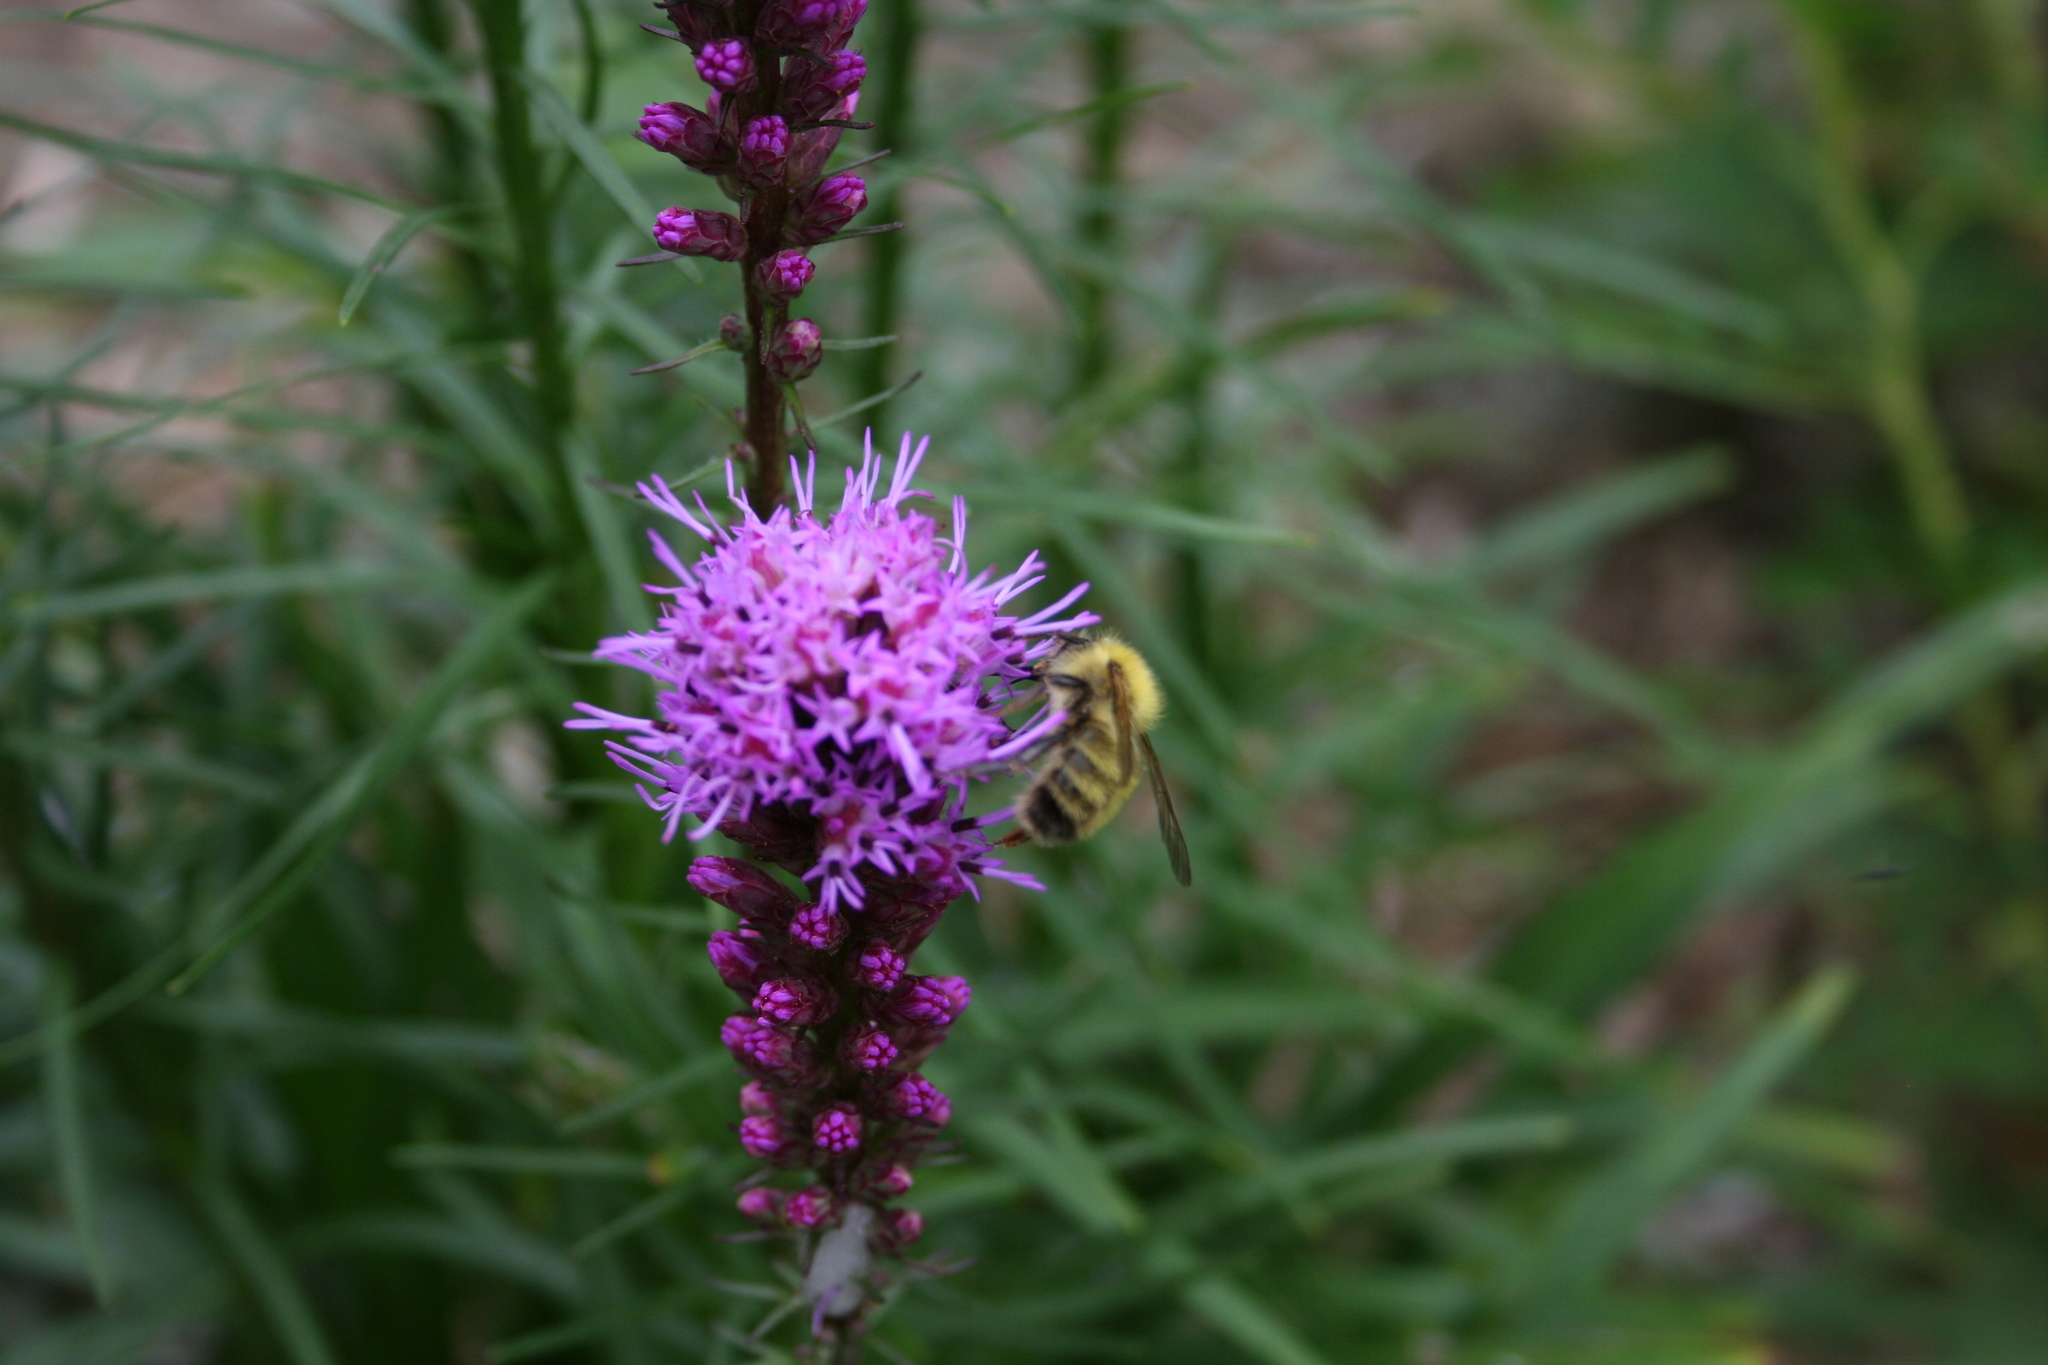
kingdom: Animalia
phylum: Arthropoda
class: Insecta
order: Hymenoptera
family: Apidae
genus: Bombus
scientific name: Bombus perplexus
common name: Confusing bumble bee
